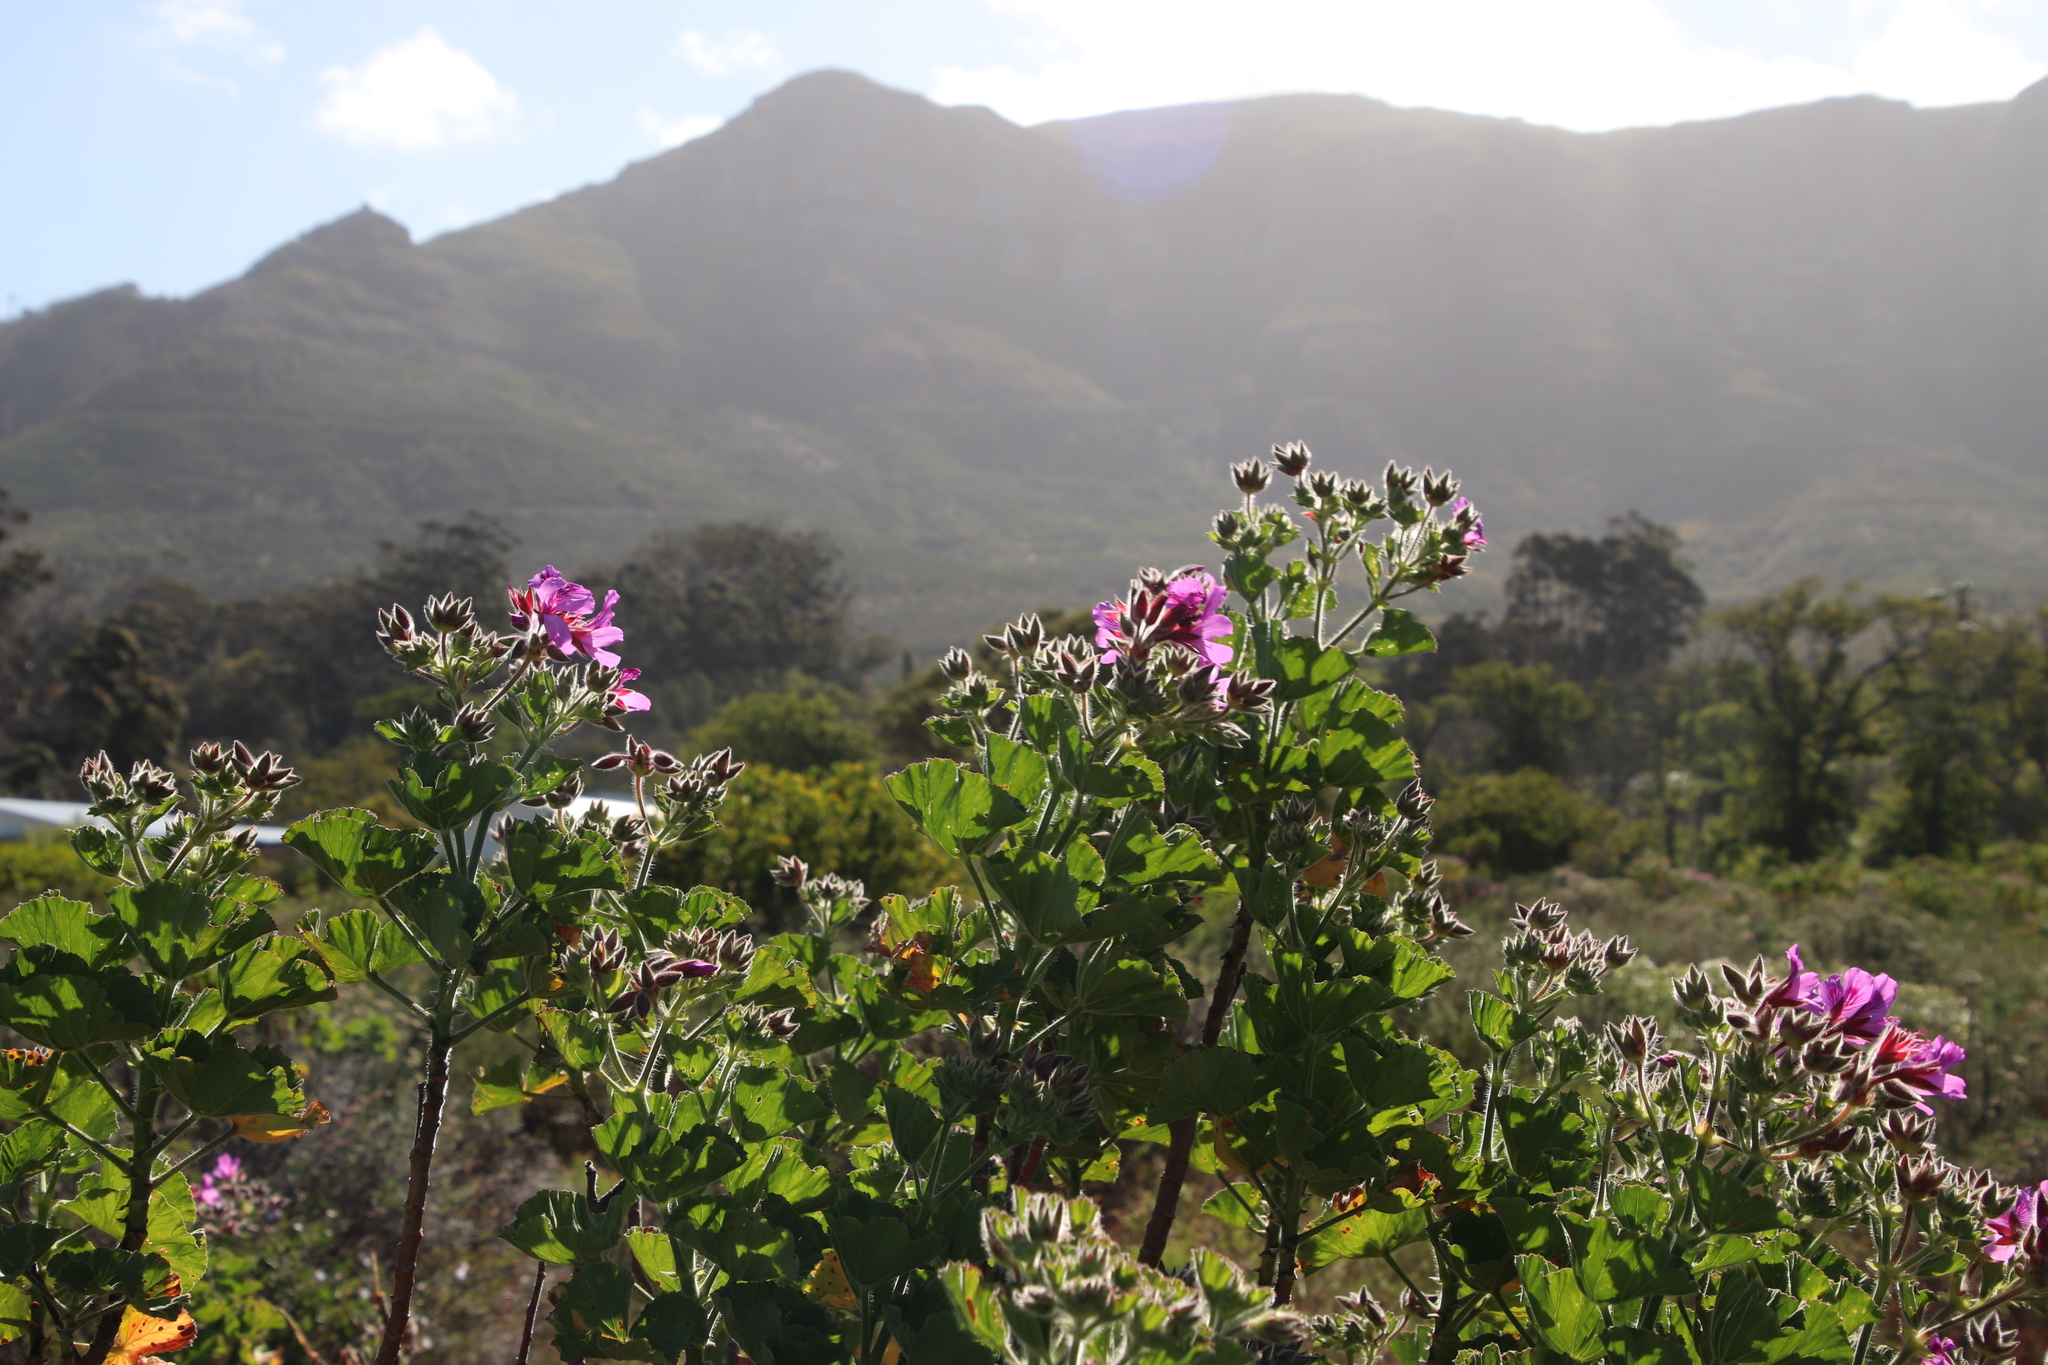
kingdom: Plantae
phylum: Tracheophyta
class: Magnoliopsida
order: Geraniales
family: Geraniaceae
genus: Pelargonium
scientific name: Pelargonium cucullatum
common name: Tree pelargonium
